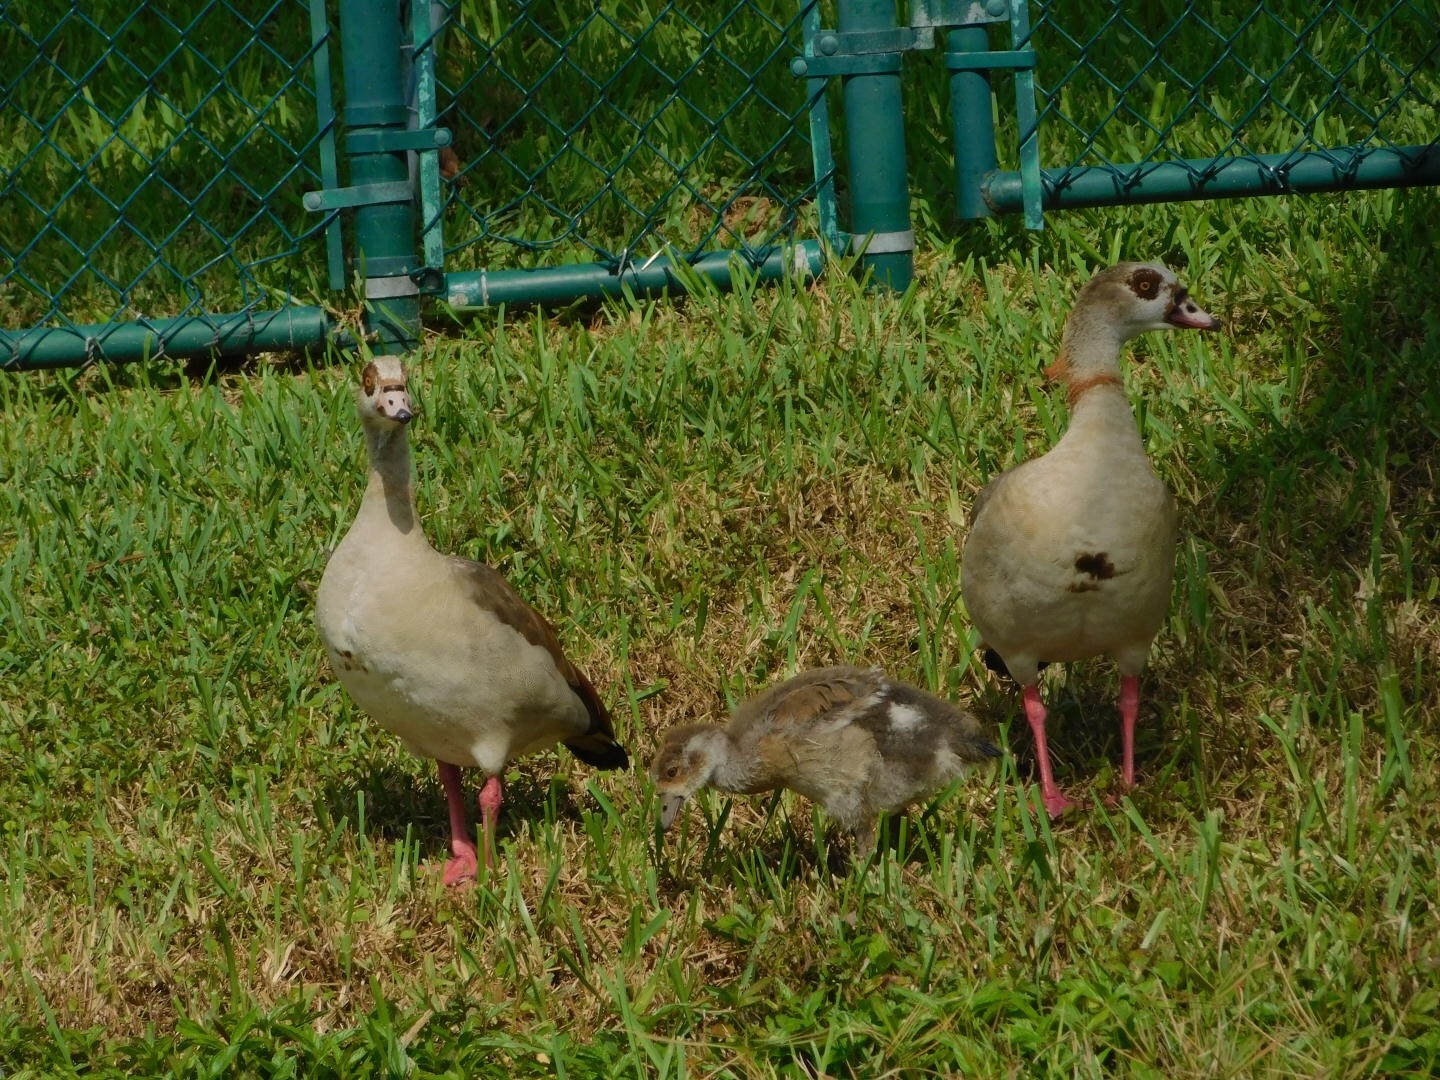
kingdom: Animalia
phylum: Chordata
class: Aves
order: Anseriformes
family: Anatidae
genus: Alopochen
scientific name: Alopochen aegyptiaca
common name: Egyptian goose
